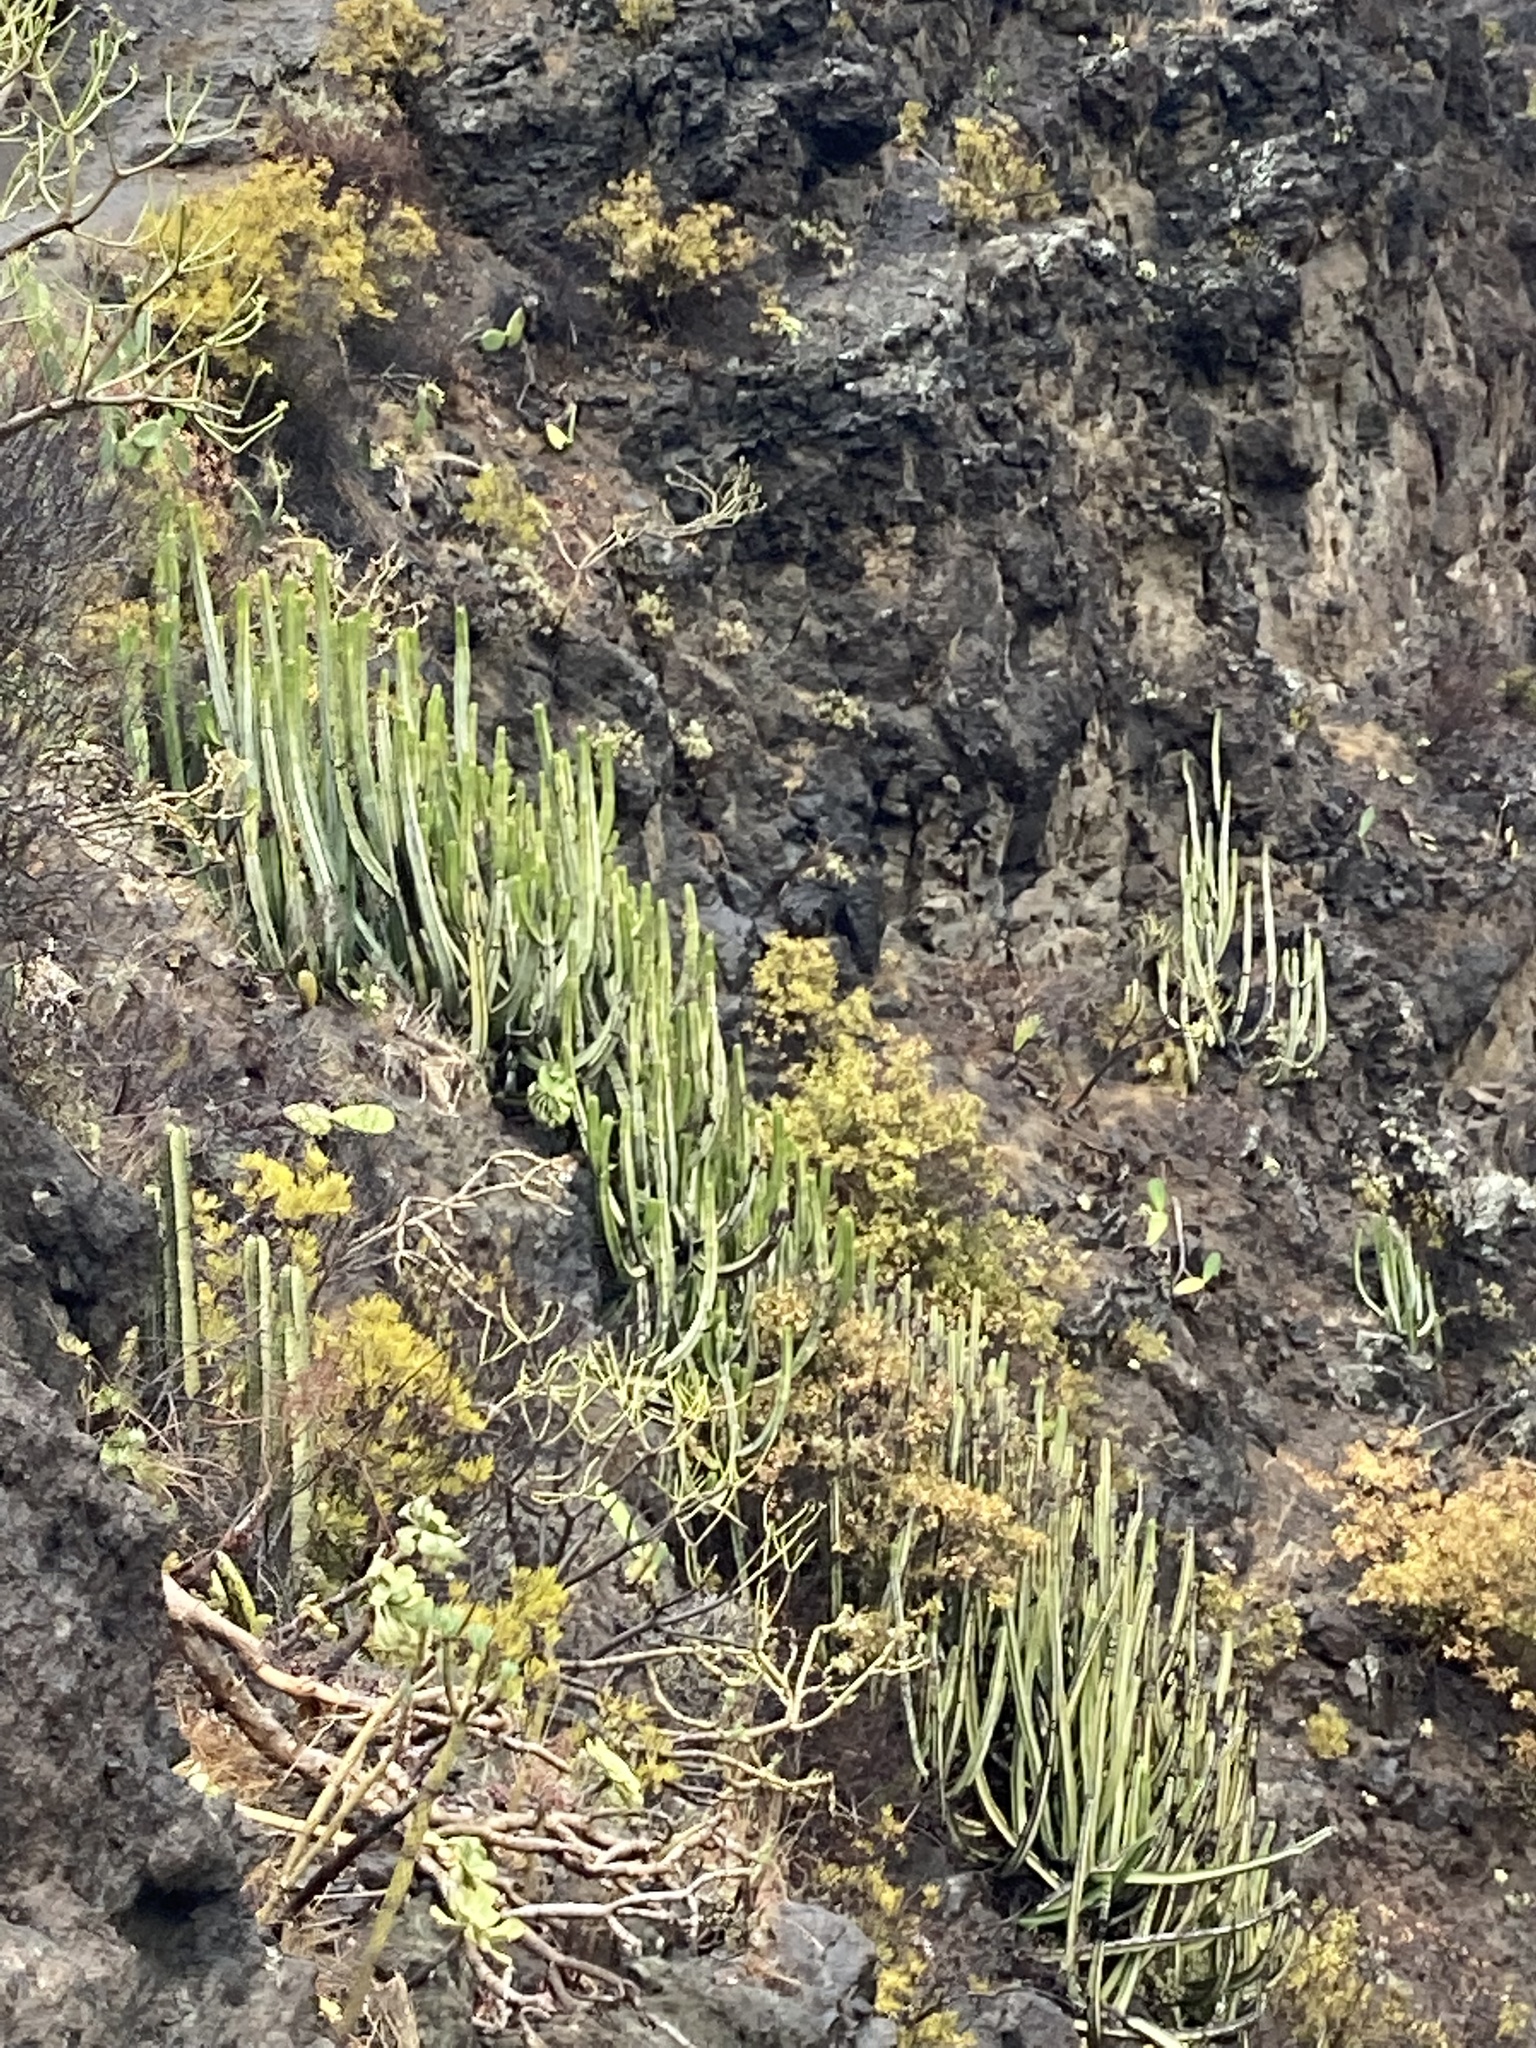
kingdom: Plantae
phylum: Tracheophyta
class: Magnoliopsida
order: Malpighiales
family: Euphorbiaceae
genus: Euphorbia
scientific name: Euphorbia canariensis
